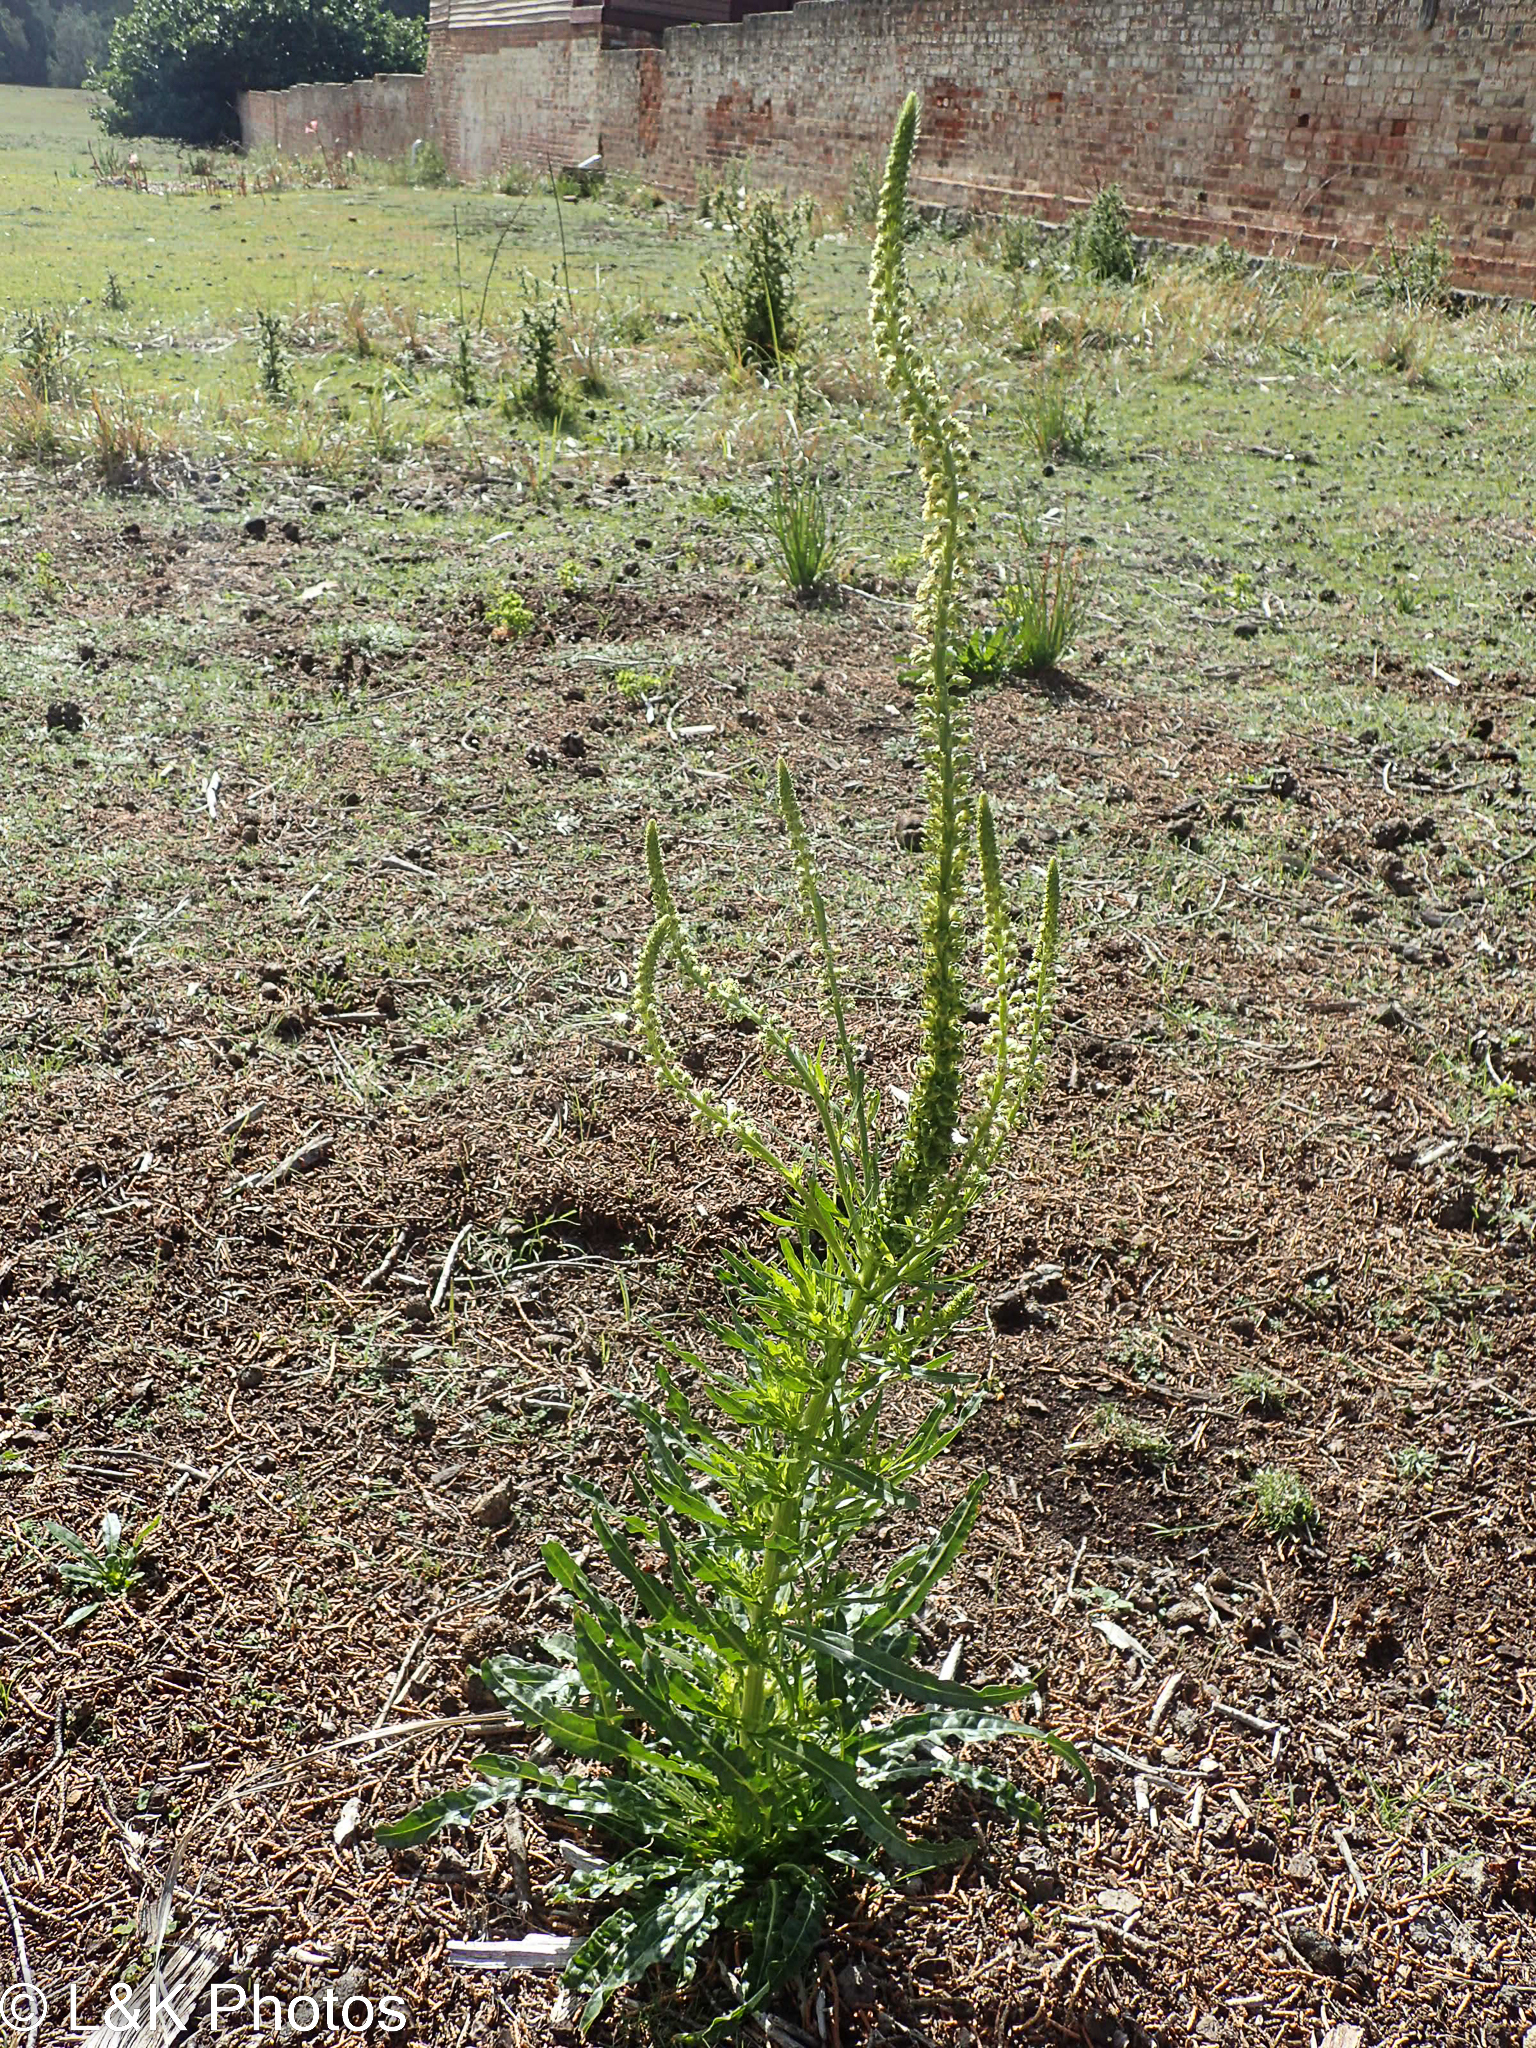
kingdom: Plantae
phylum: Tracheophyta
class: Magnoliopsida
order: Brassicales
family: Resedaceae
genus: Reseda
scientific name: Reseda luteola
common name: Weld
